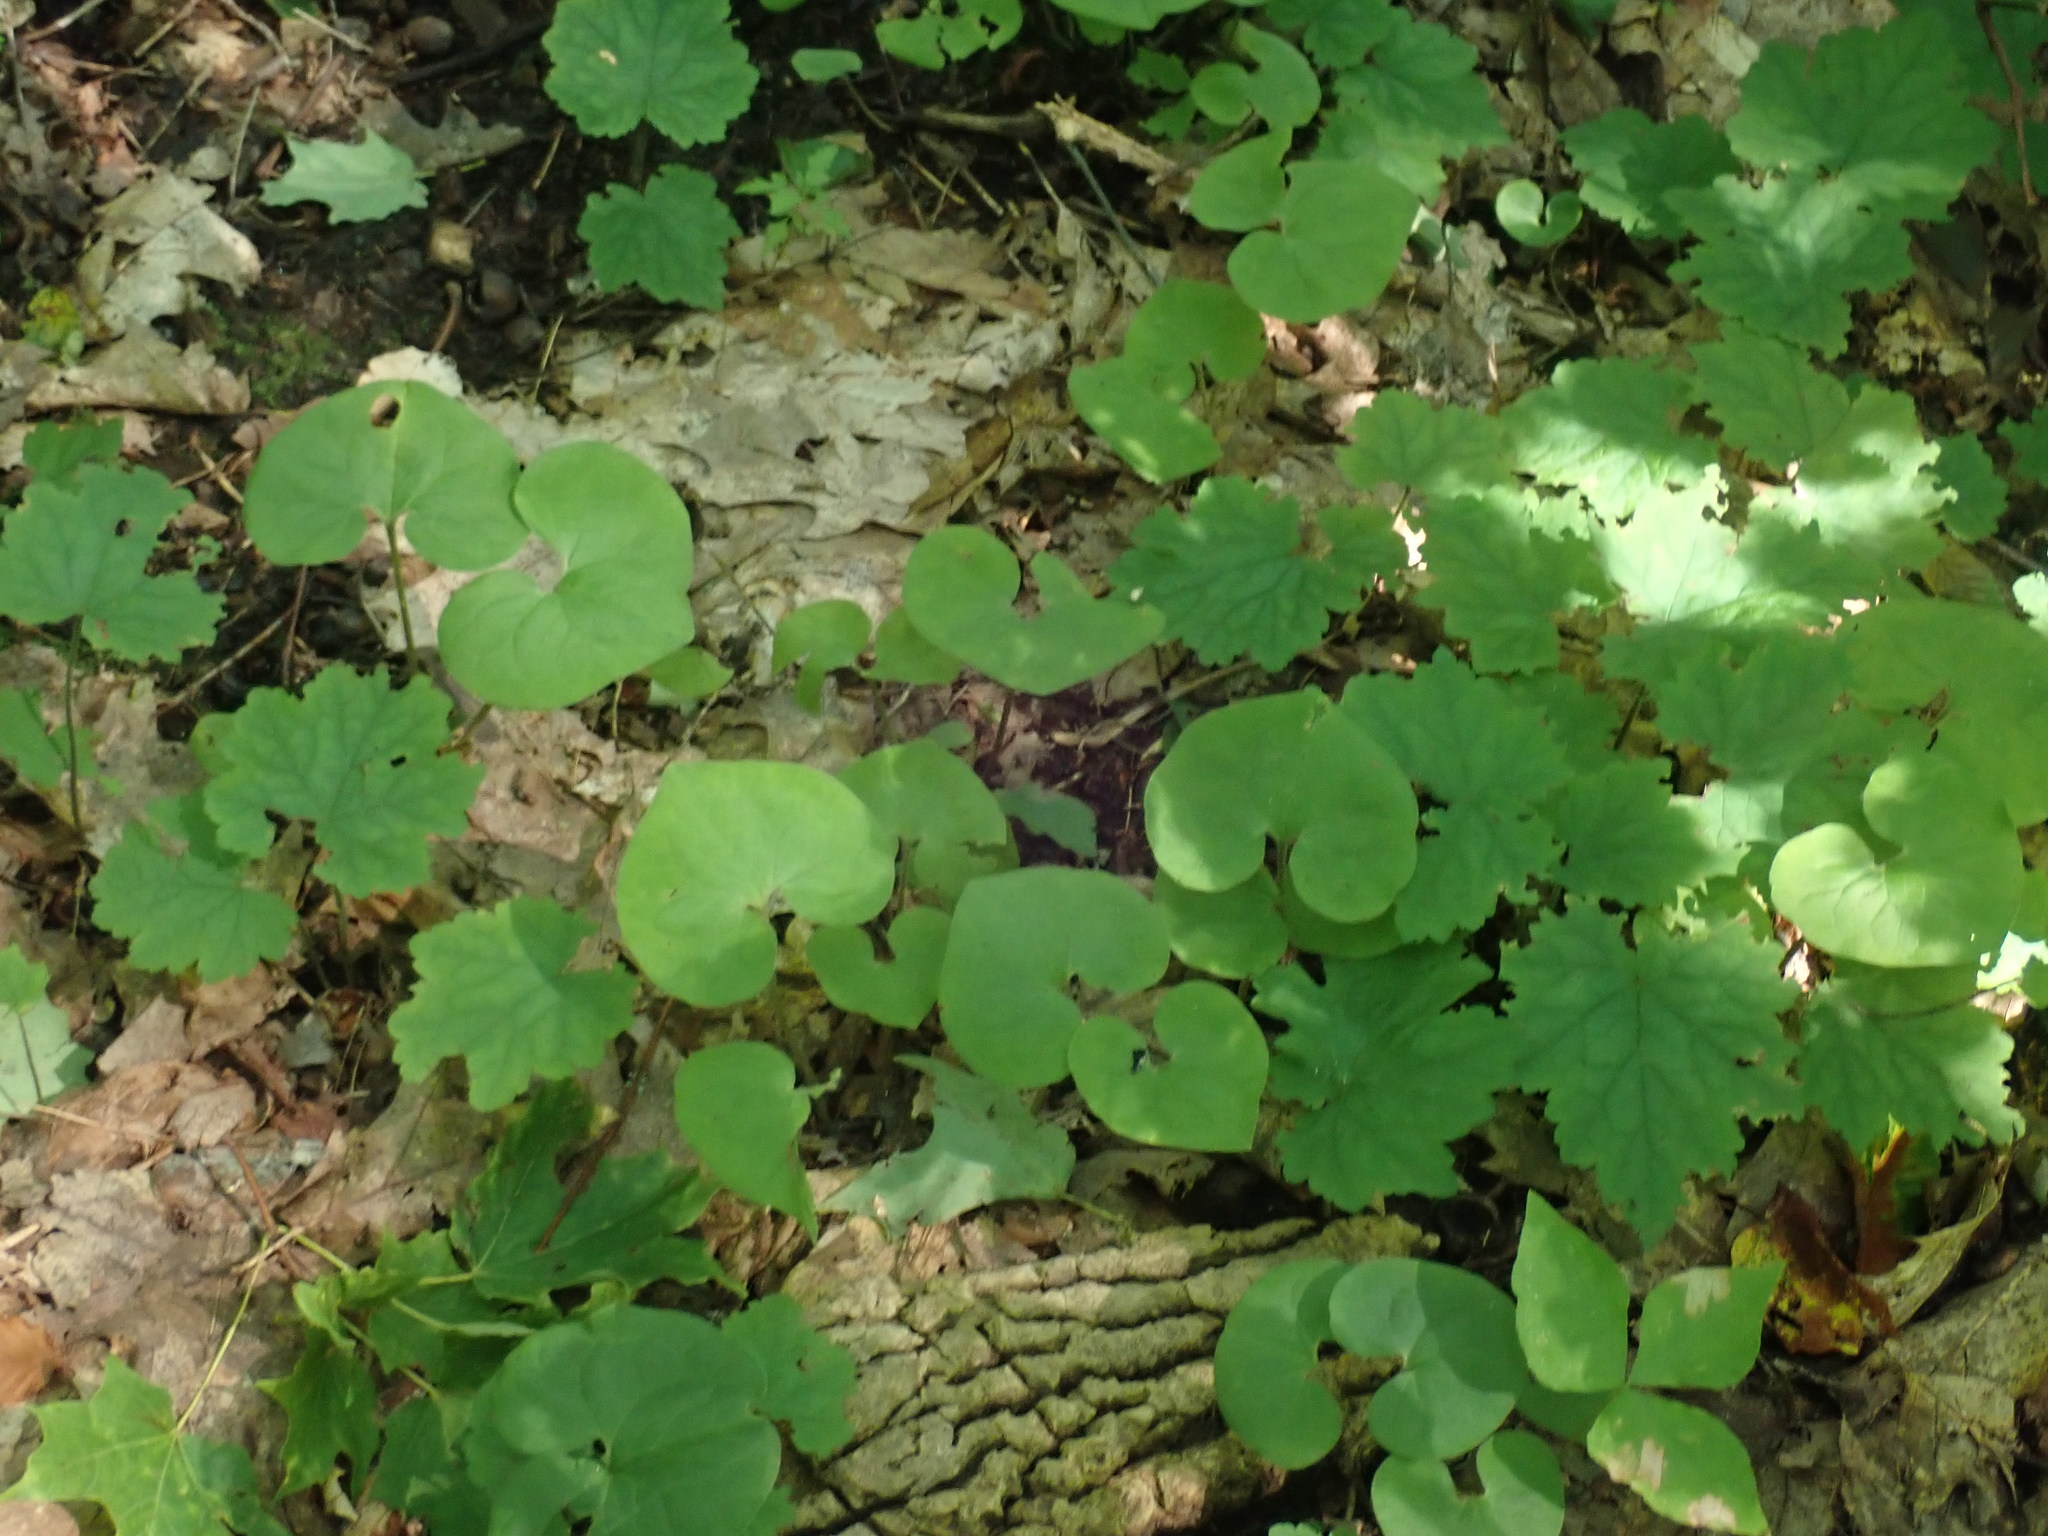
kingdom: Plantae
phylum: Tracheophyta
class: Magnoliopsida
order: Piperales
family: Aristolochiaceae
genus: Asarum
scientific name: Asarum canadense
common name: Wild ginger
